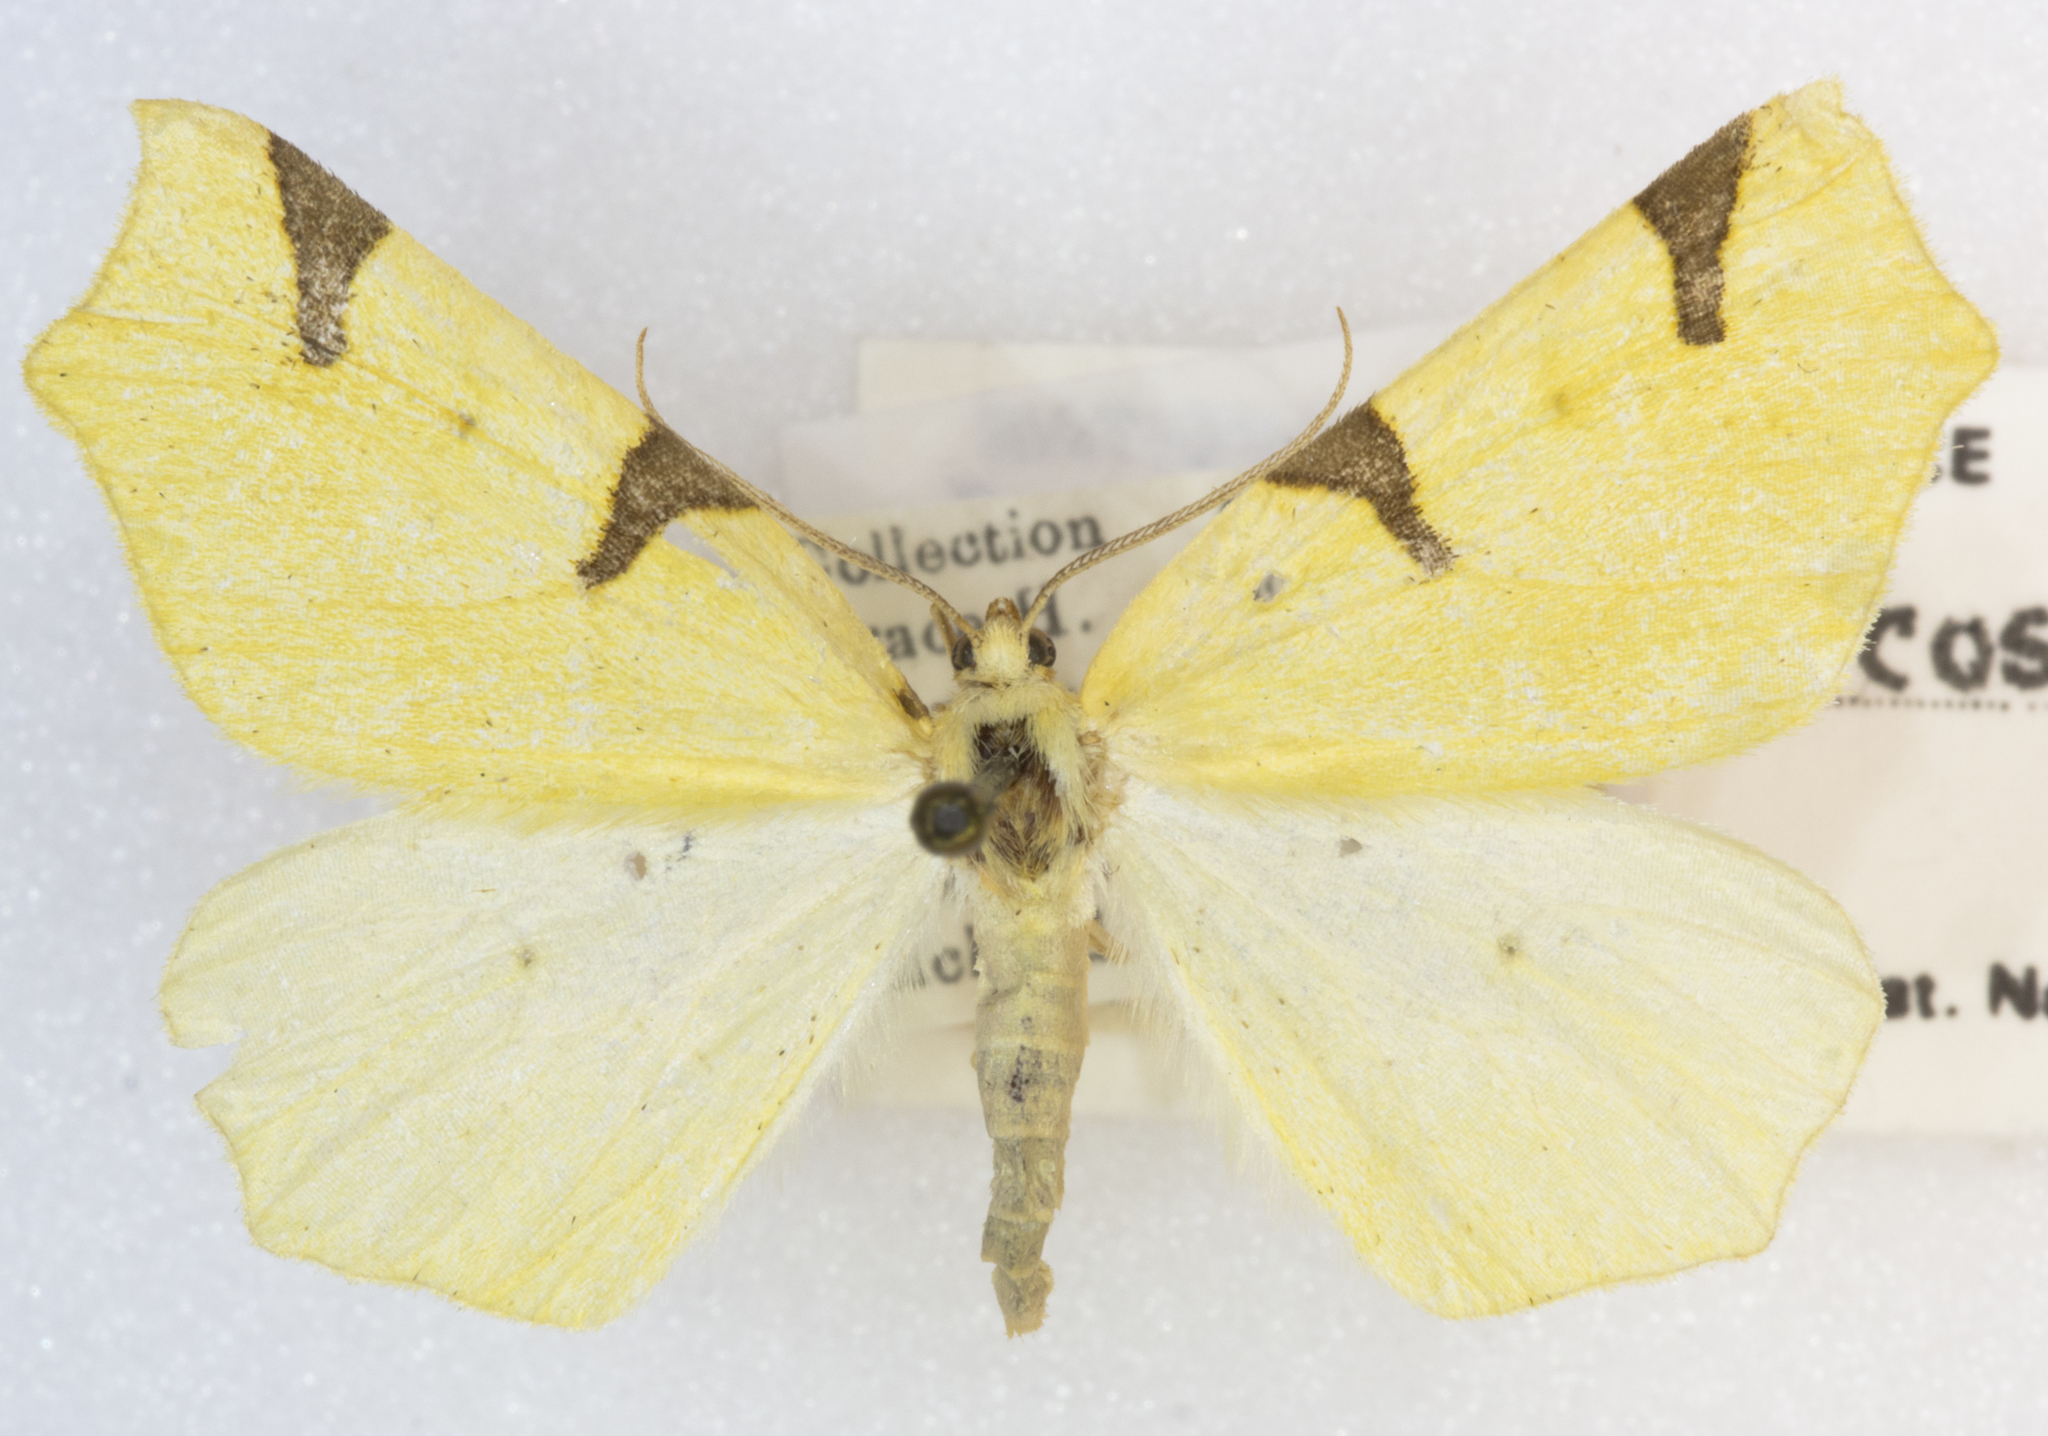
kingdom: Animalia
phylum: Arthropoda
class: Insecta
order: Lepidoptera
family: Geometridae
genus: Neoterpes
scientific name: Neoterpes trianguliferata
